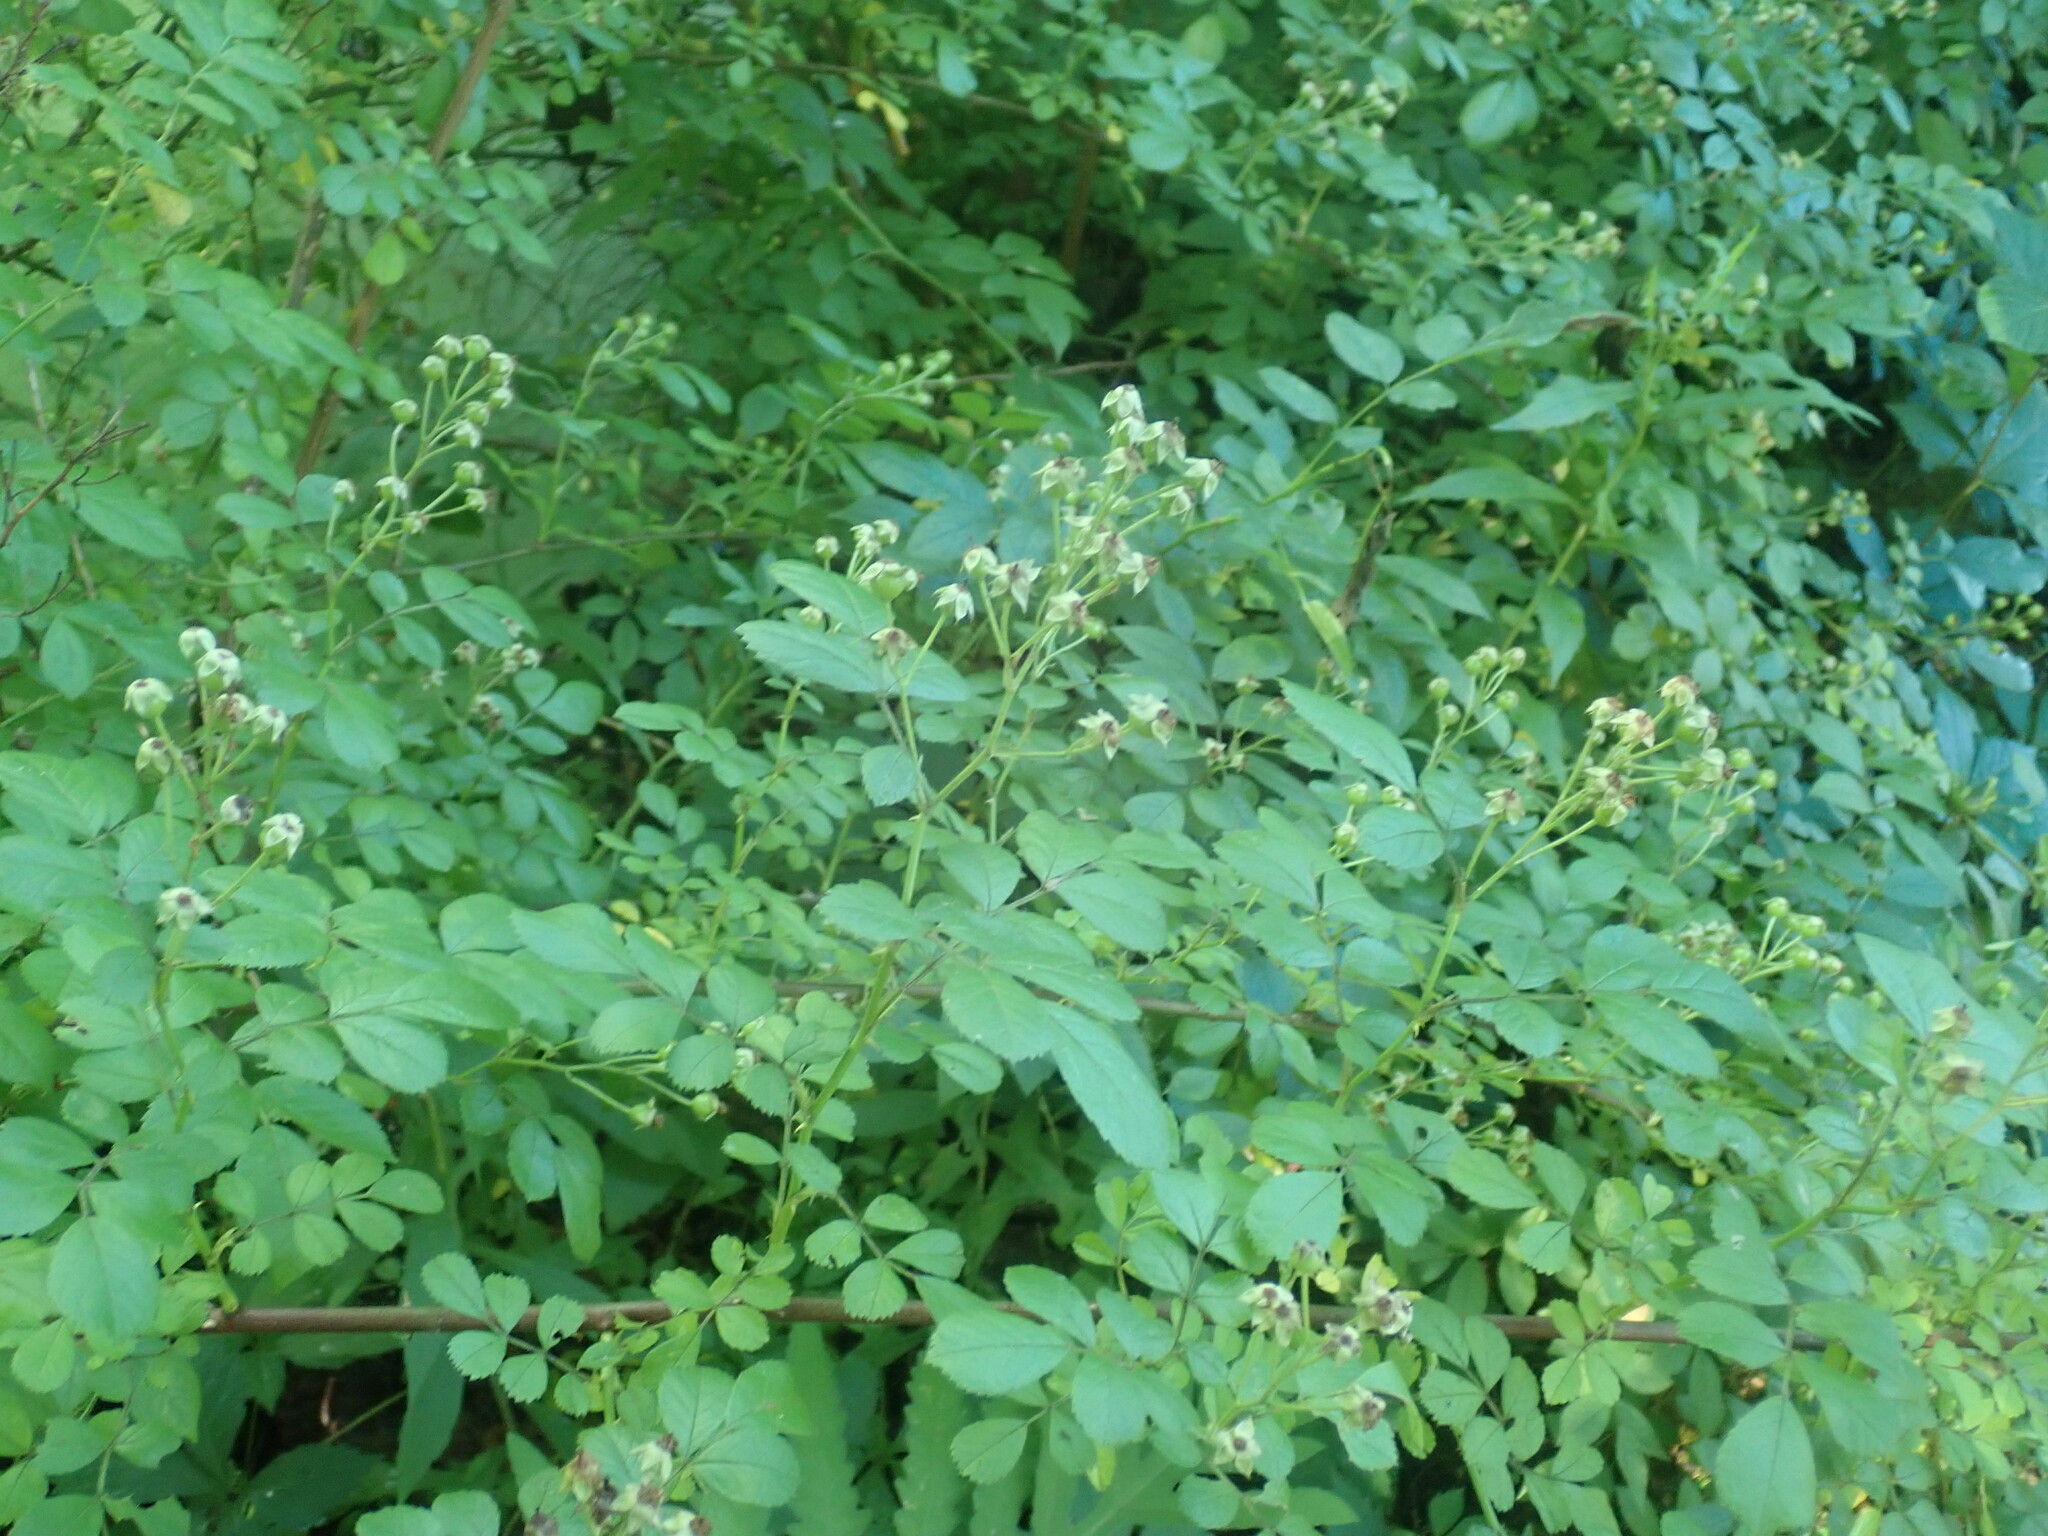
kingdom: Plantae
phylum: Tracheophyta
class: Magnoliopsida
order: Rosales
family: Rosaceae
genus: Rosa
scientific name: Rosa multiflora
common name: Multiflora rose
